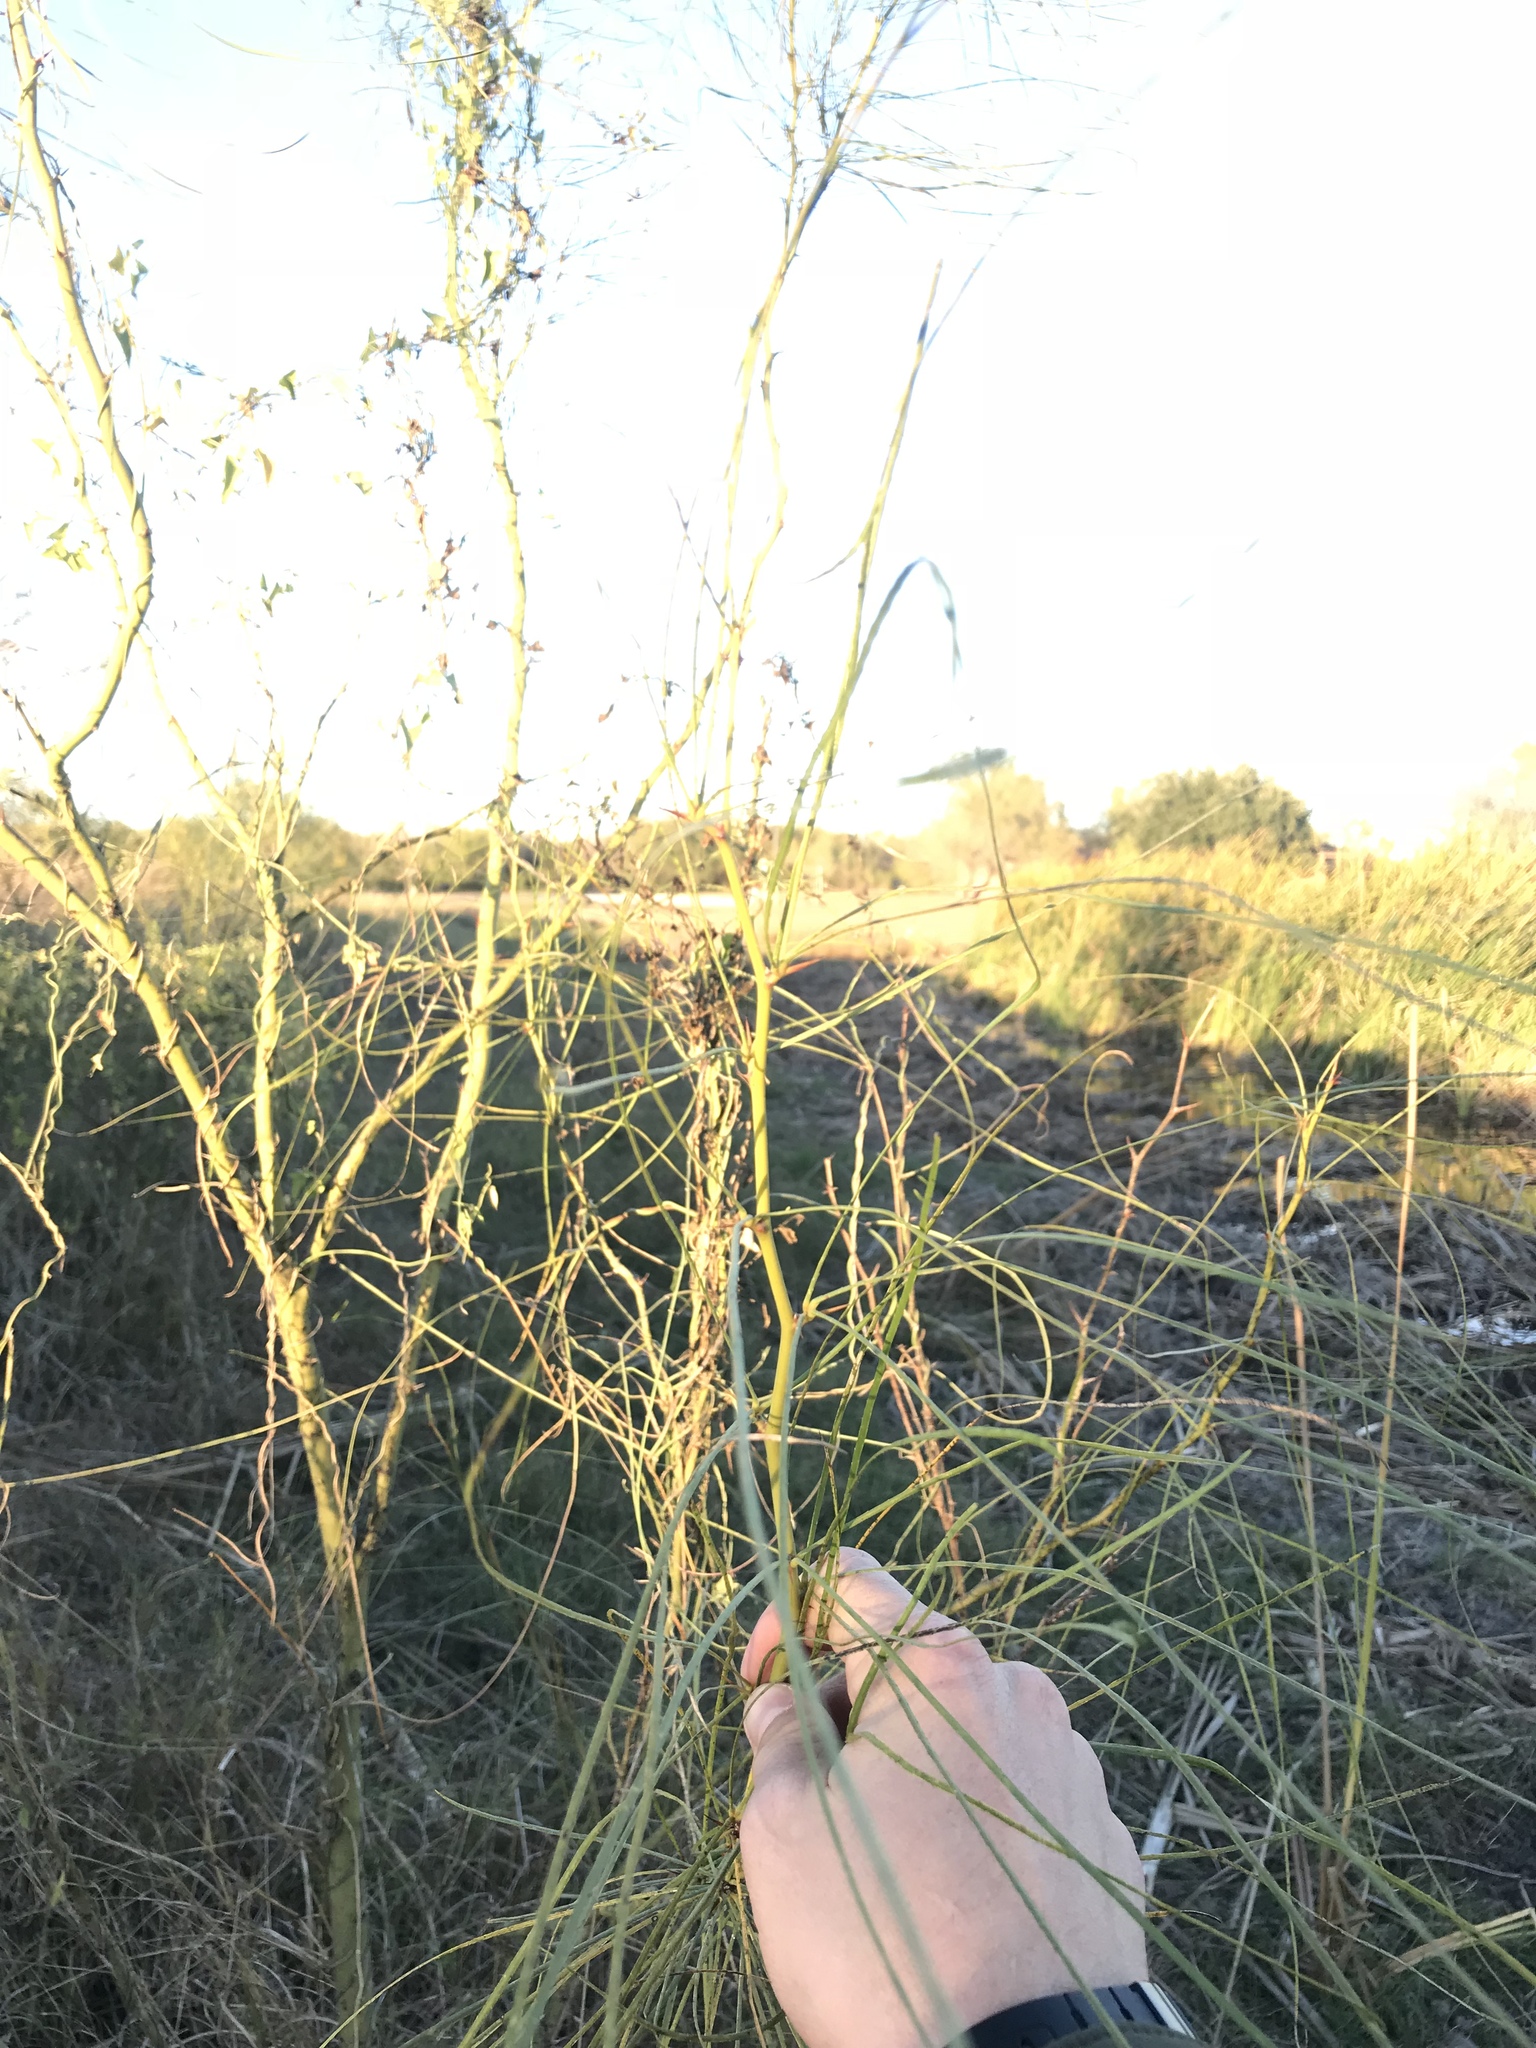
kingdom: Plantae
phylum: Tracheophyta
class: Magnoliopsida
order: Fabales
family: Fabaceae
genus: Parkinsonia
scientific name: Parkinsonia aculeata
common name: Jerusalem thorn
